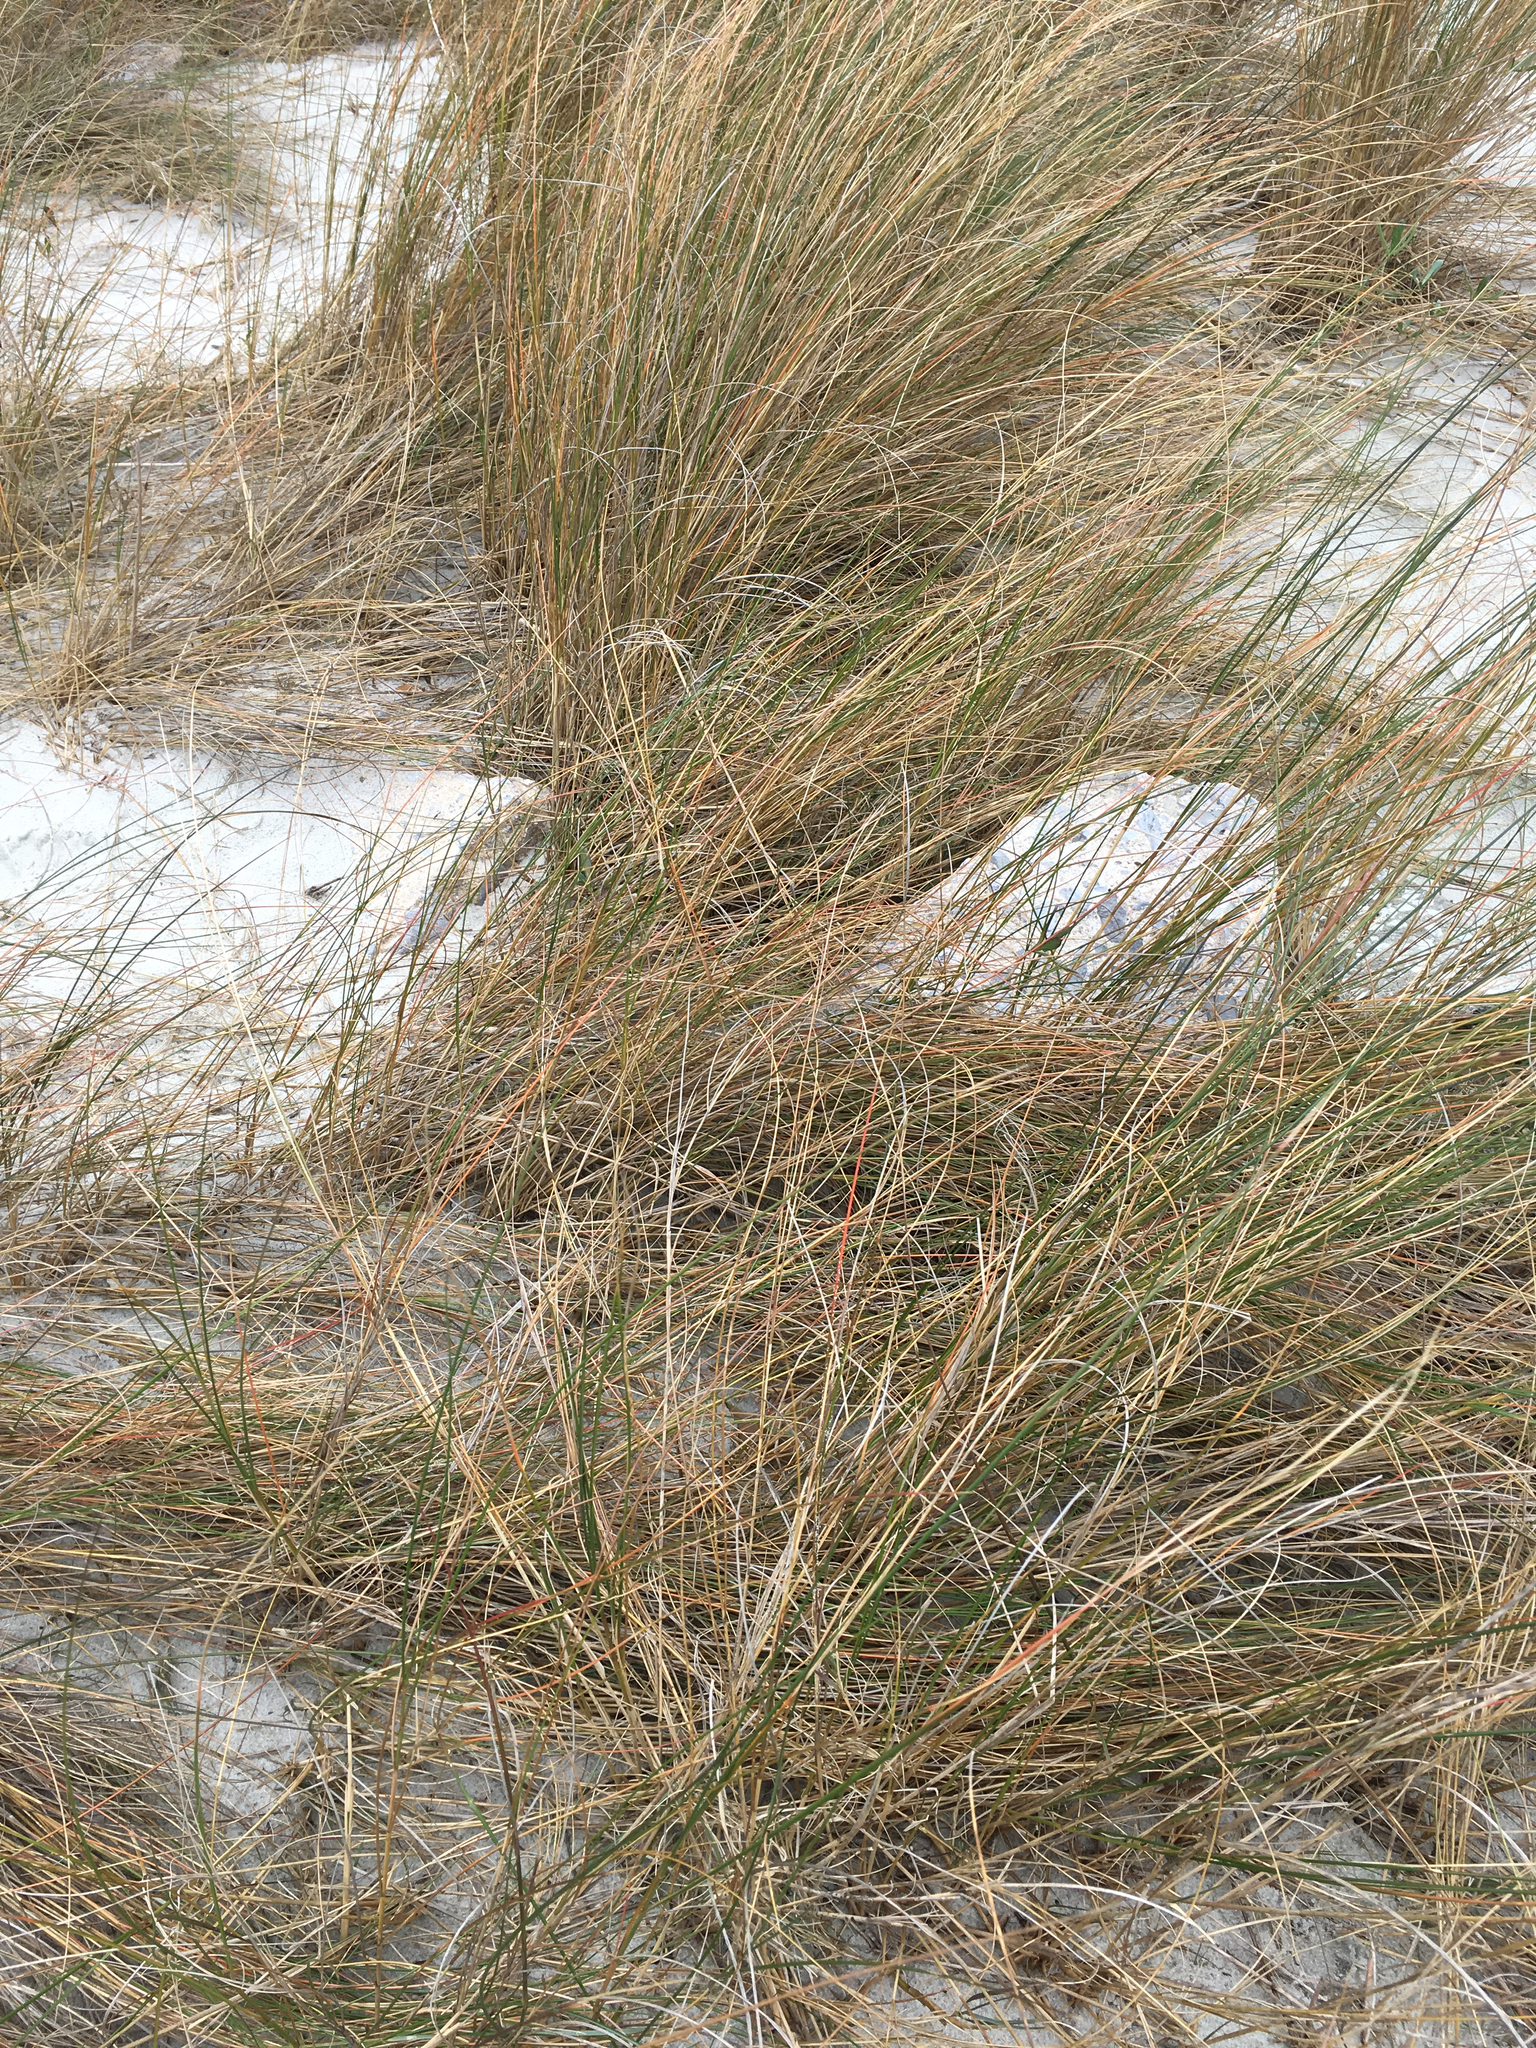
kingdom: Plantae
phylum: Tracheophyta
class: Liliopsida
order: Poales
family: Poaceae
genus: Sporobolus
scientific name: Sporobolus pumilus
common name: Highwater grass
